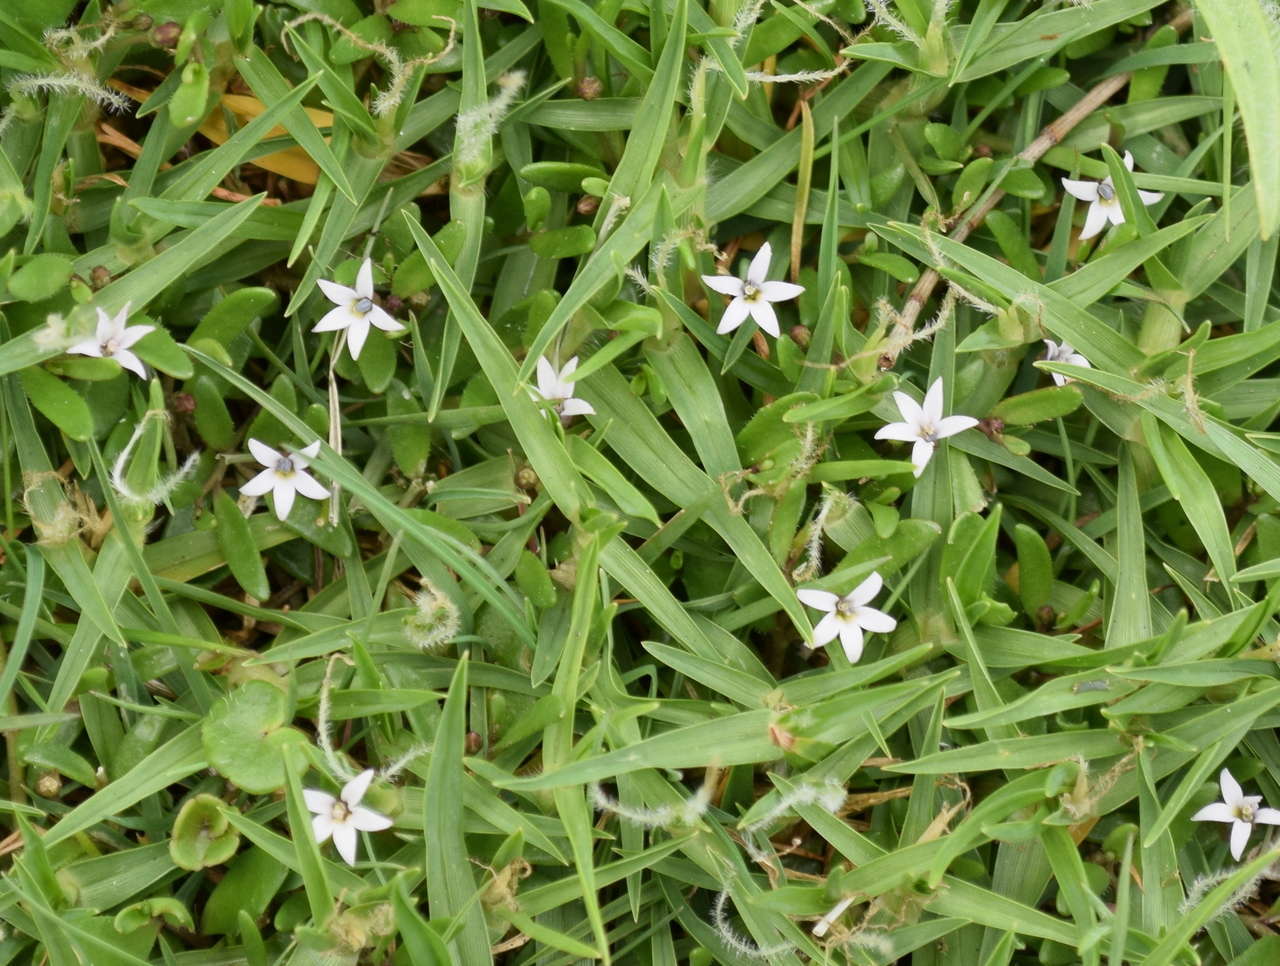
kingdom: Plantae
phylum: Tracheophyta
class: Magnoliopsida
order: Asterales
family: Campanulaceae
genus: Lobelia
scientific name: Lobelia irrigua
